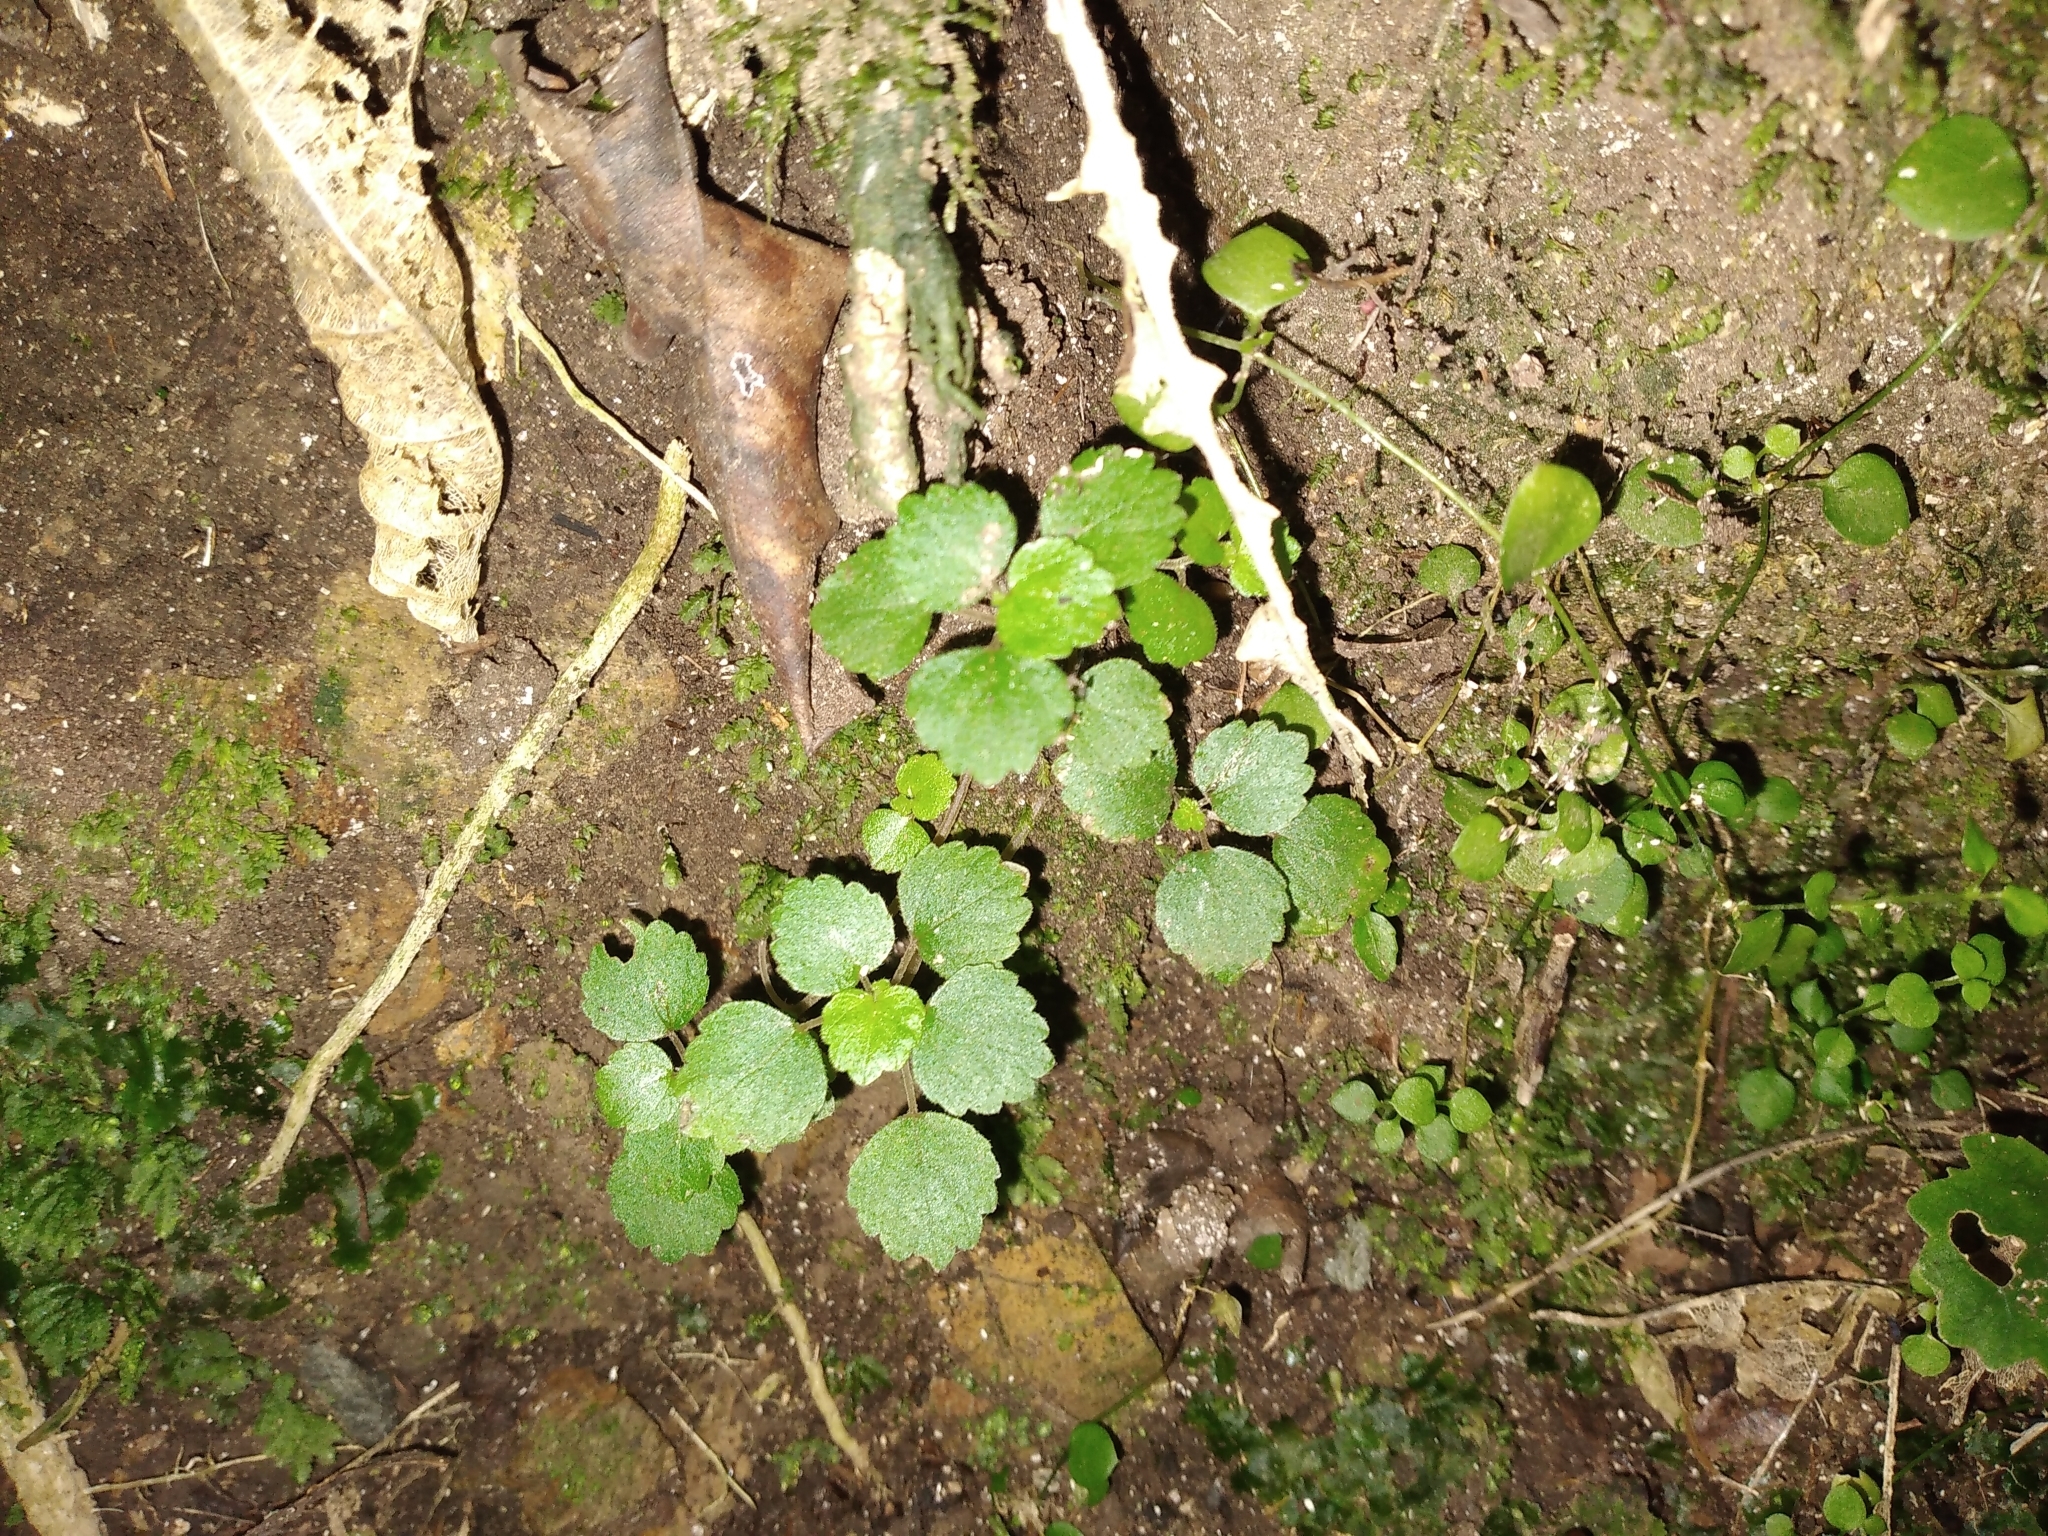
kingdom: Plantae
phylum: Tracheophyta
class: Magnoliopsida
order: Rosales
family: Urticaceae
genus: Australina
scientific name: Australina pusilla
